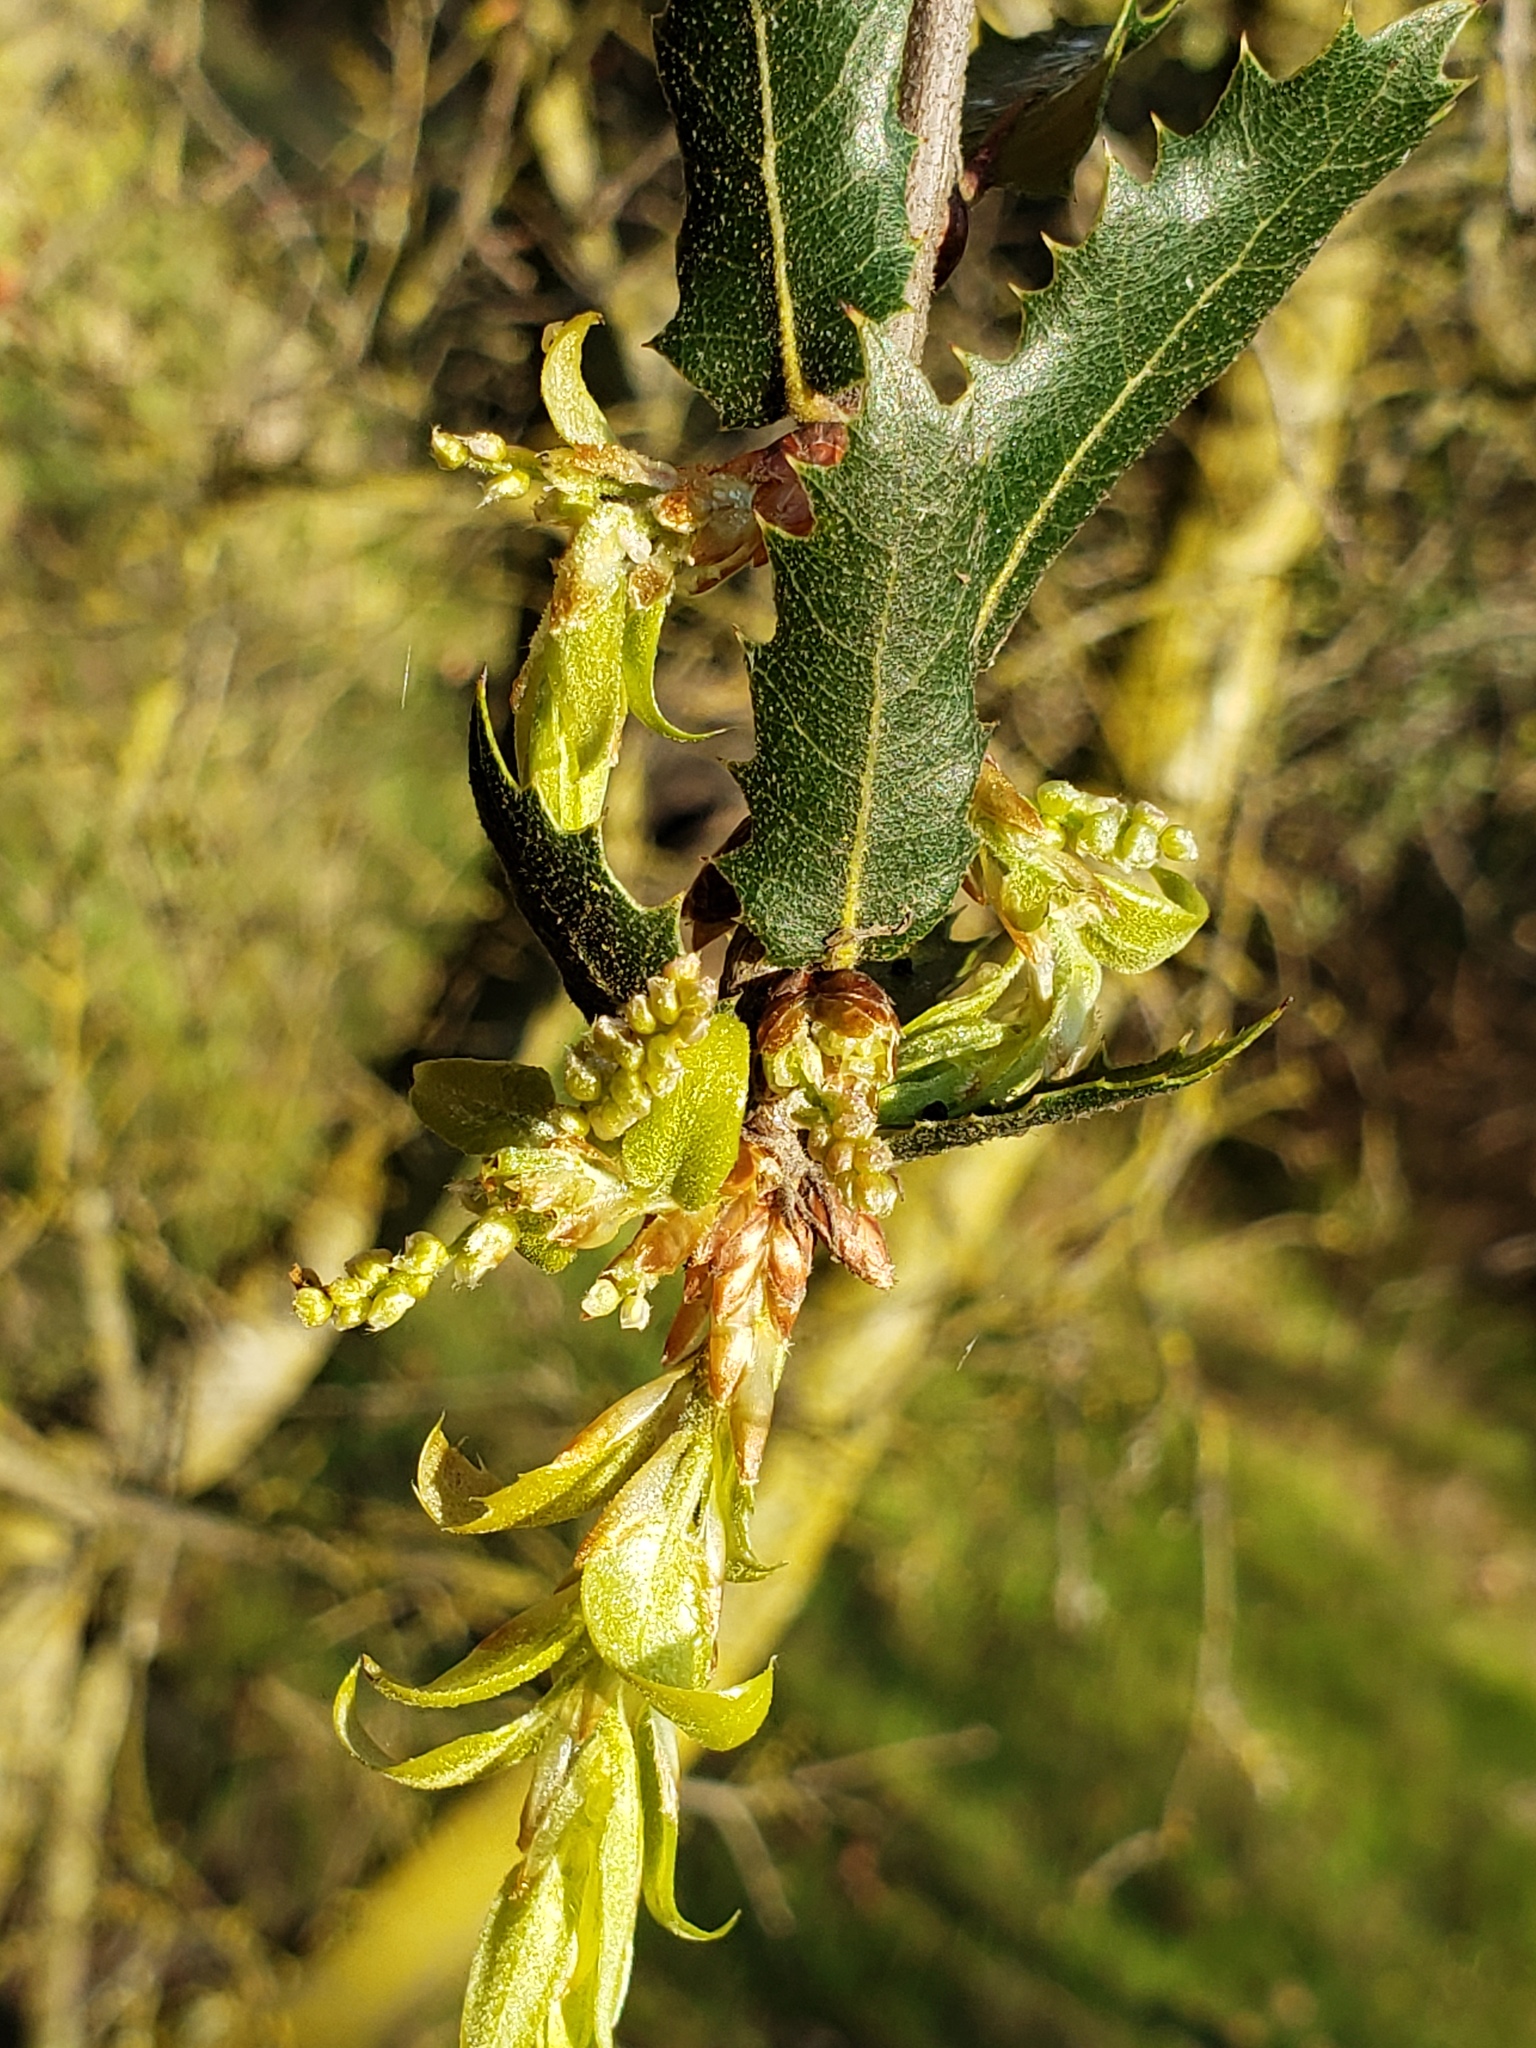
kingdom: Plantae
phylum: Tracheophyta
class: Magnoliopsida
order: Fagales
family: Fagaceae
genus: Quercus
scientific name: Quercus wislizeni
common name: Interior live oak
